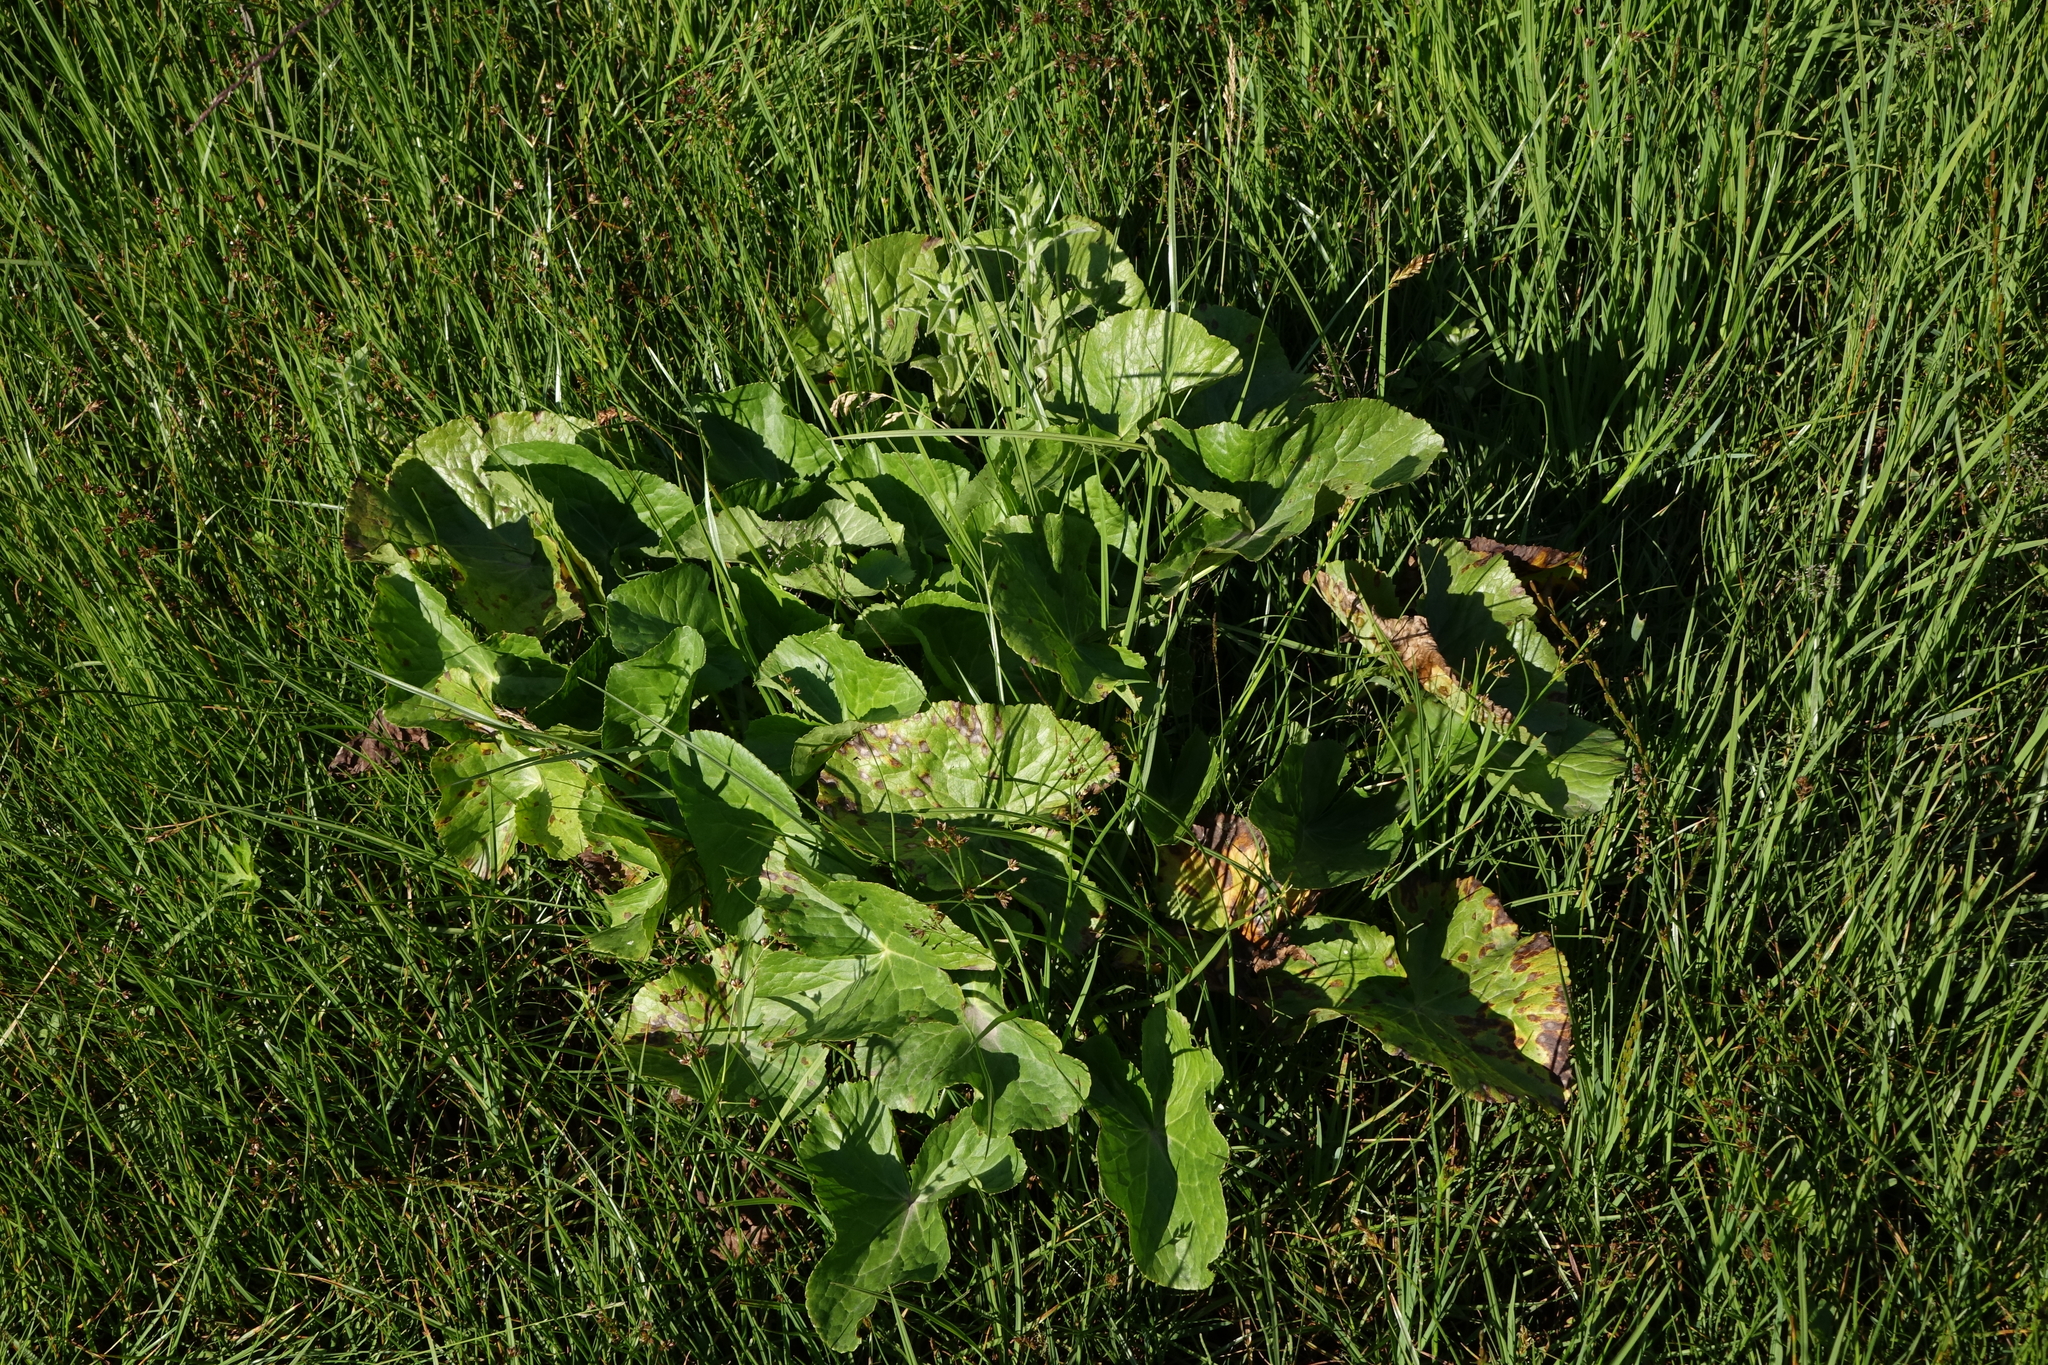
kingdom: Plantae
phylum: Tracheophyta
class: Magnoliopsida
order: Ranunculales
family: Ranunculaceae
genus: Caltha
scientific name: Caltha palustris
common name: Marsh marigold
